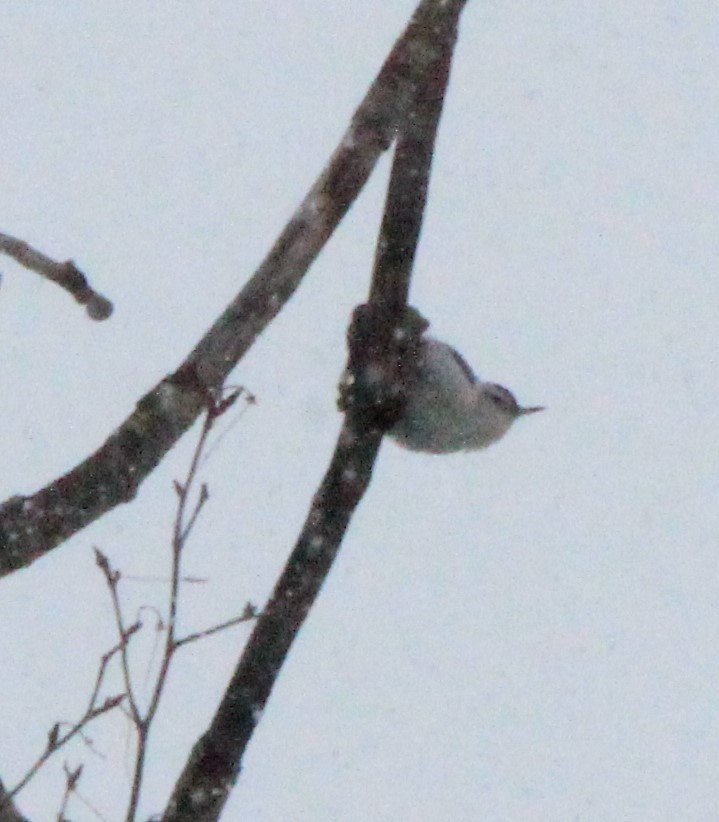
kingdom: Animalia
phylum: Chordata
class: Aves
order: Passeriformes
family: Sittidae
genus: Sitta
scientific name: Sitta carolinensis
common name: White-breasted nuthatch
